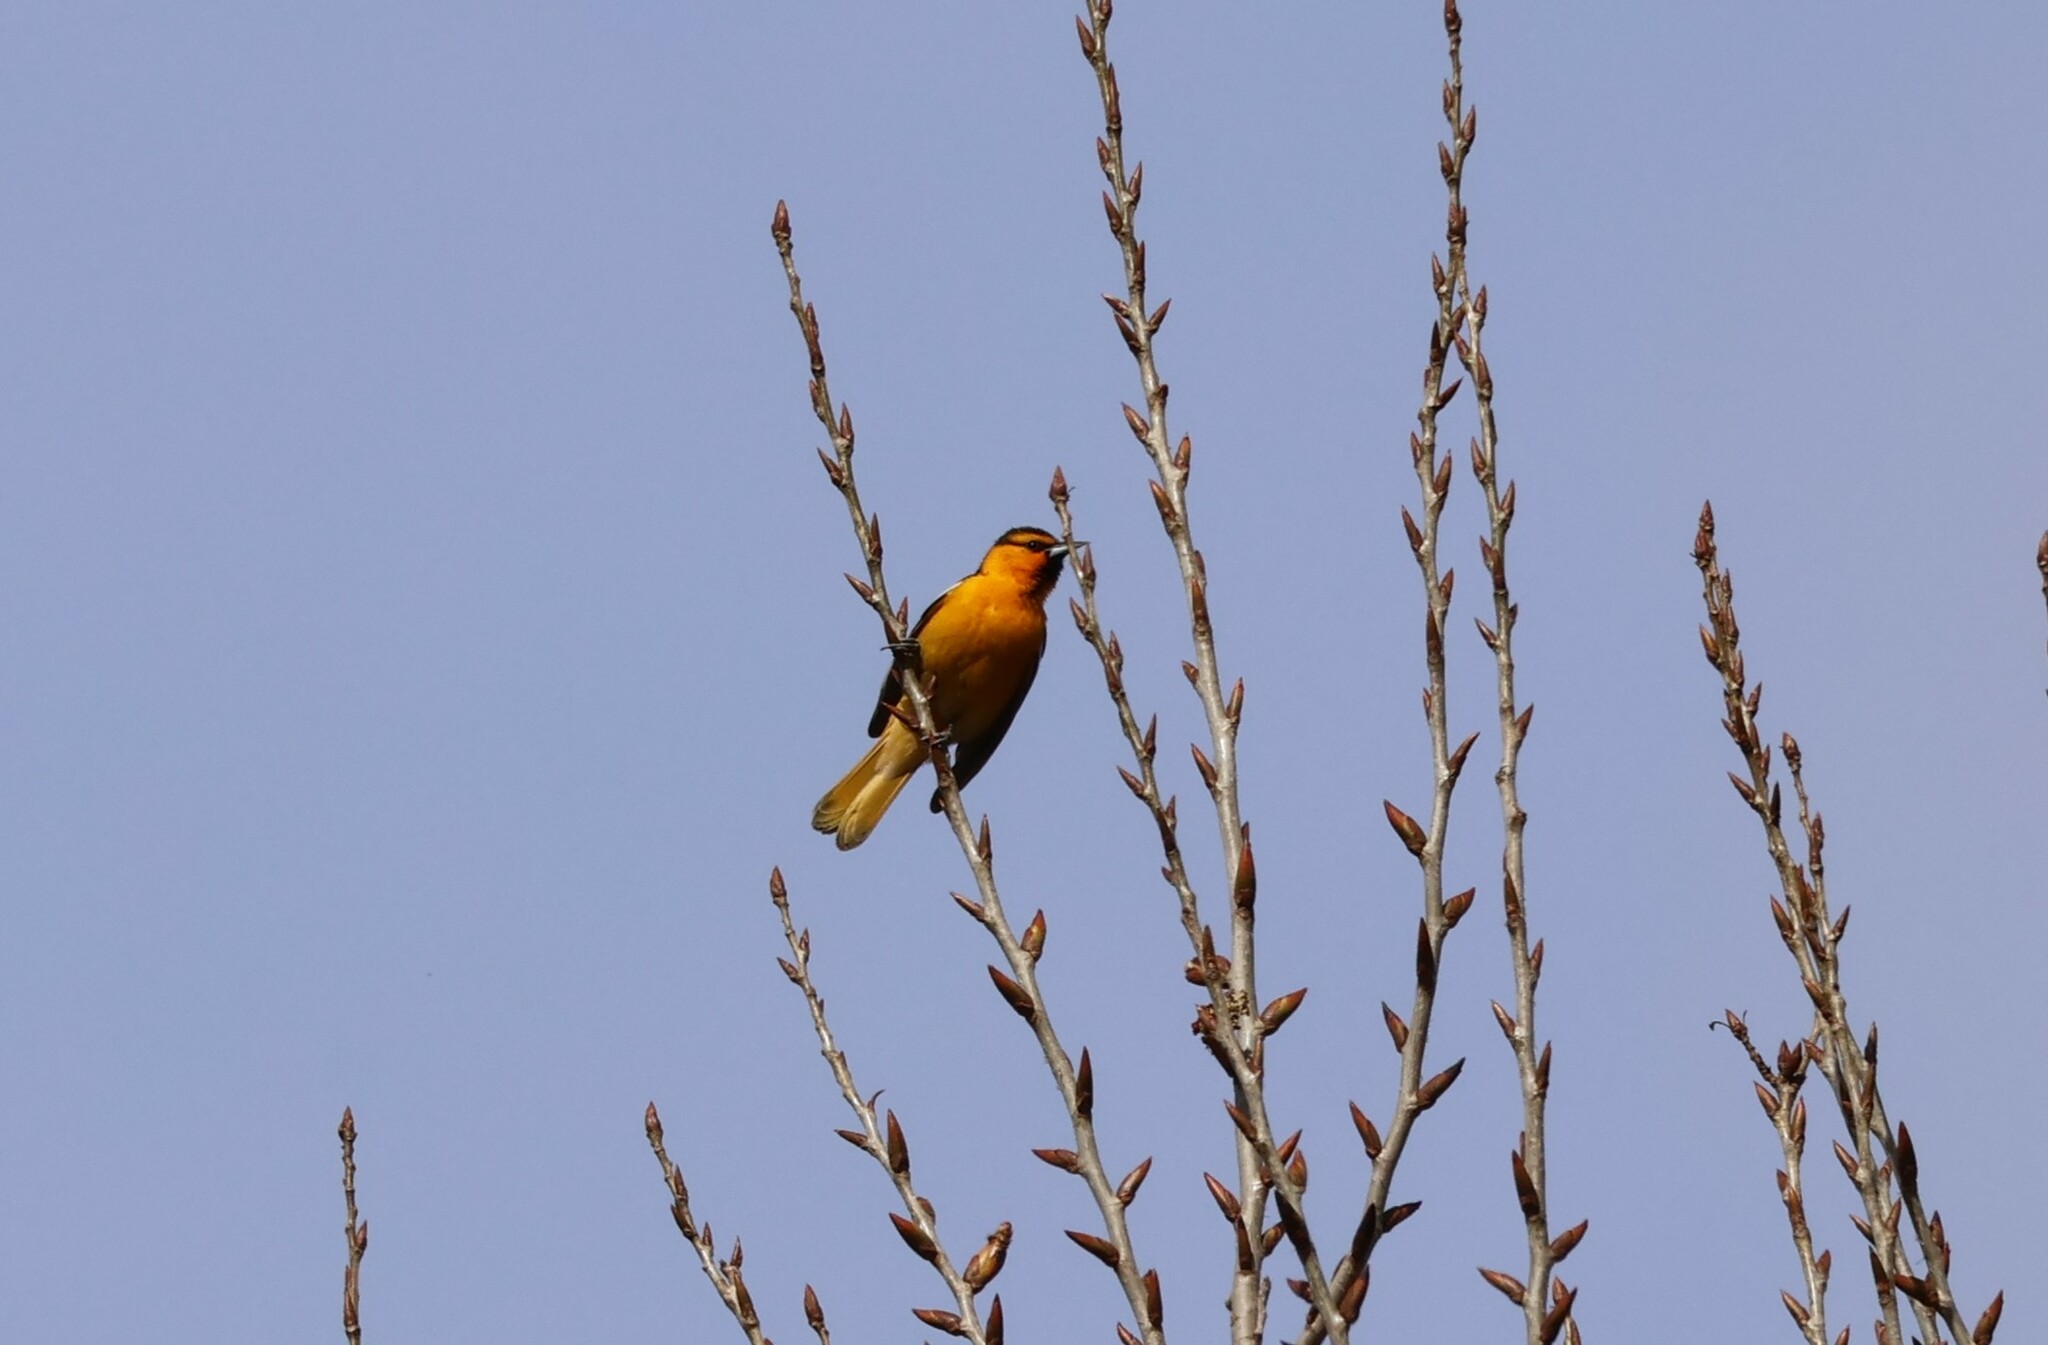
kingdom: Animalia
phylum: Chordata
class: Aves
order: Passeriformes
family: Icteridae
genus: Icterus
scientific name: Icterus bullockii
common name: Bullock's oriole
